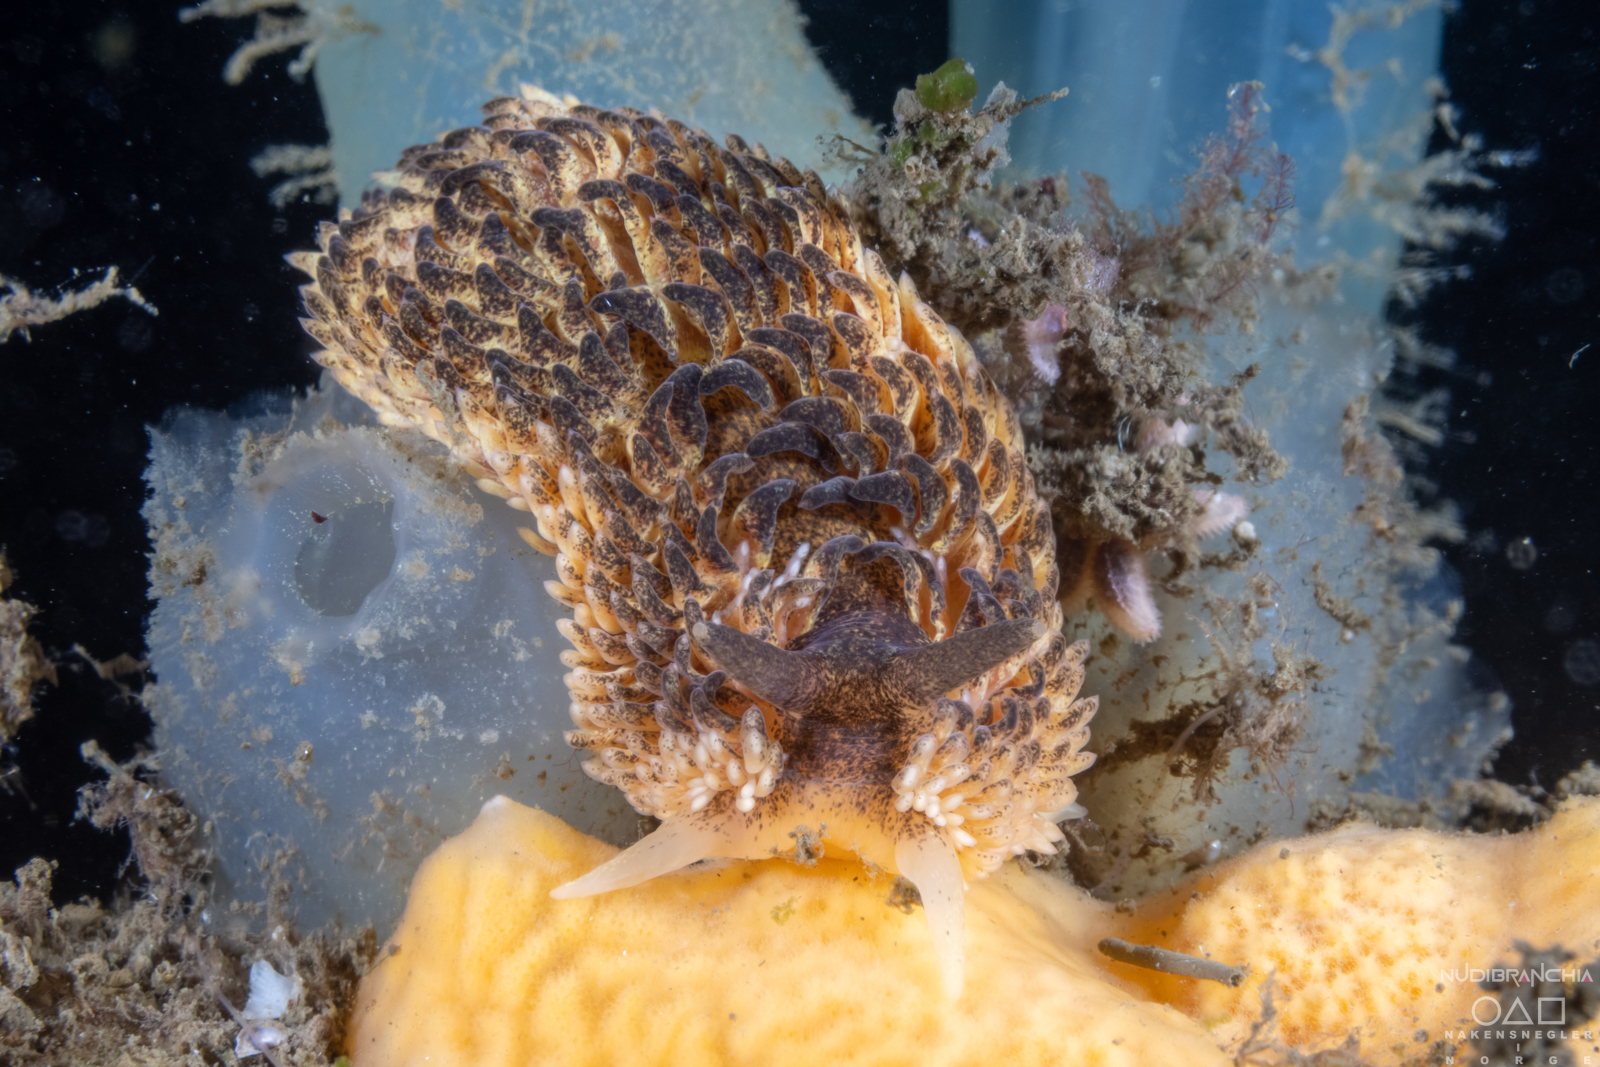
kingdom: Animalia
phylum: Mollusca
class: Gastropoda
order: Nudibranchia
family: Aeolidiidae
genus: Aeolidia
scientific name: Aeolidia papillosa
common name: Common grey sea slug
